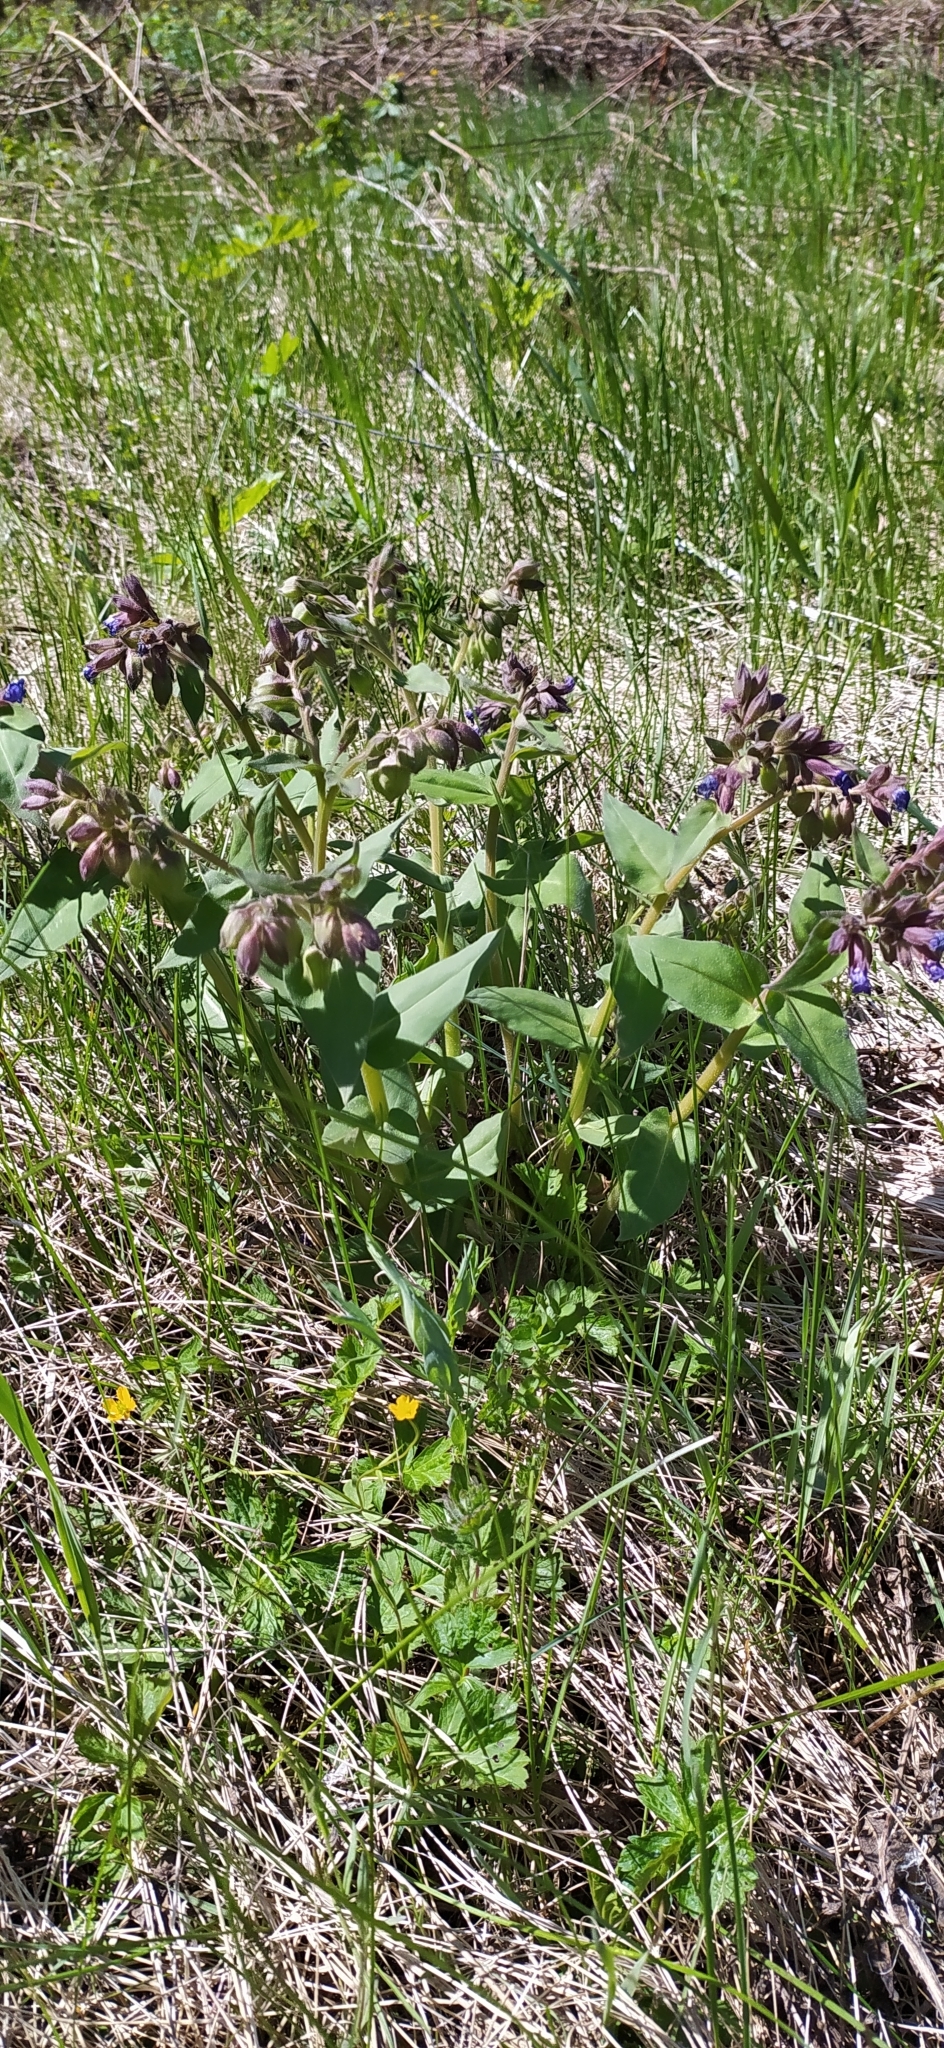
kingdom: Plantae
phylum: Tracheophyta
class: Magnoliopsida
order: Boraginales
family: Boraginaceae
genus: Pulmonaria
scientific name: Pulmonaria mollis
